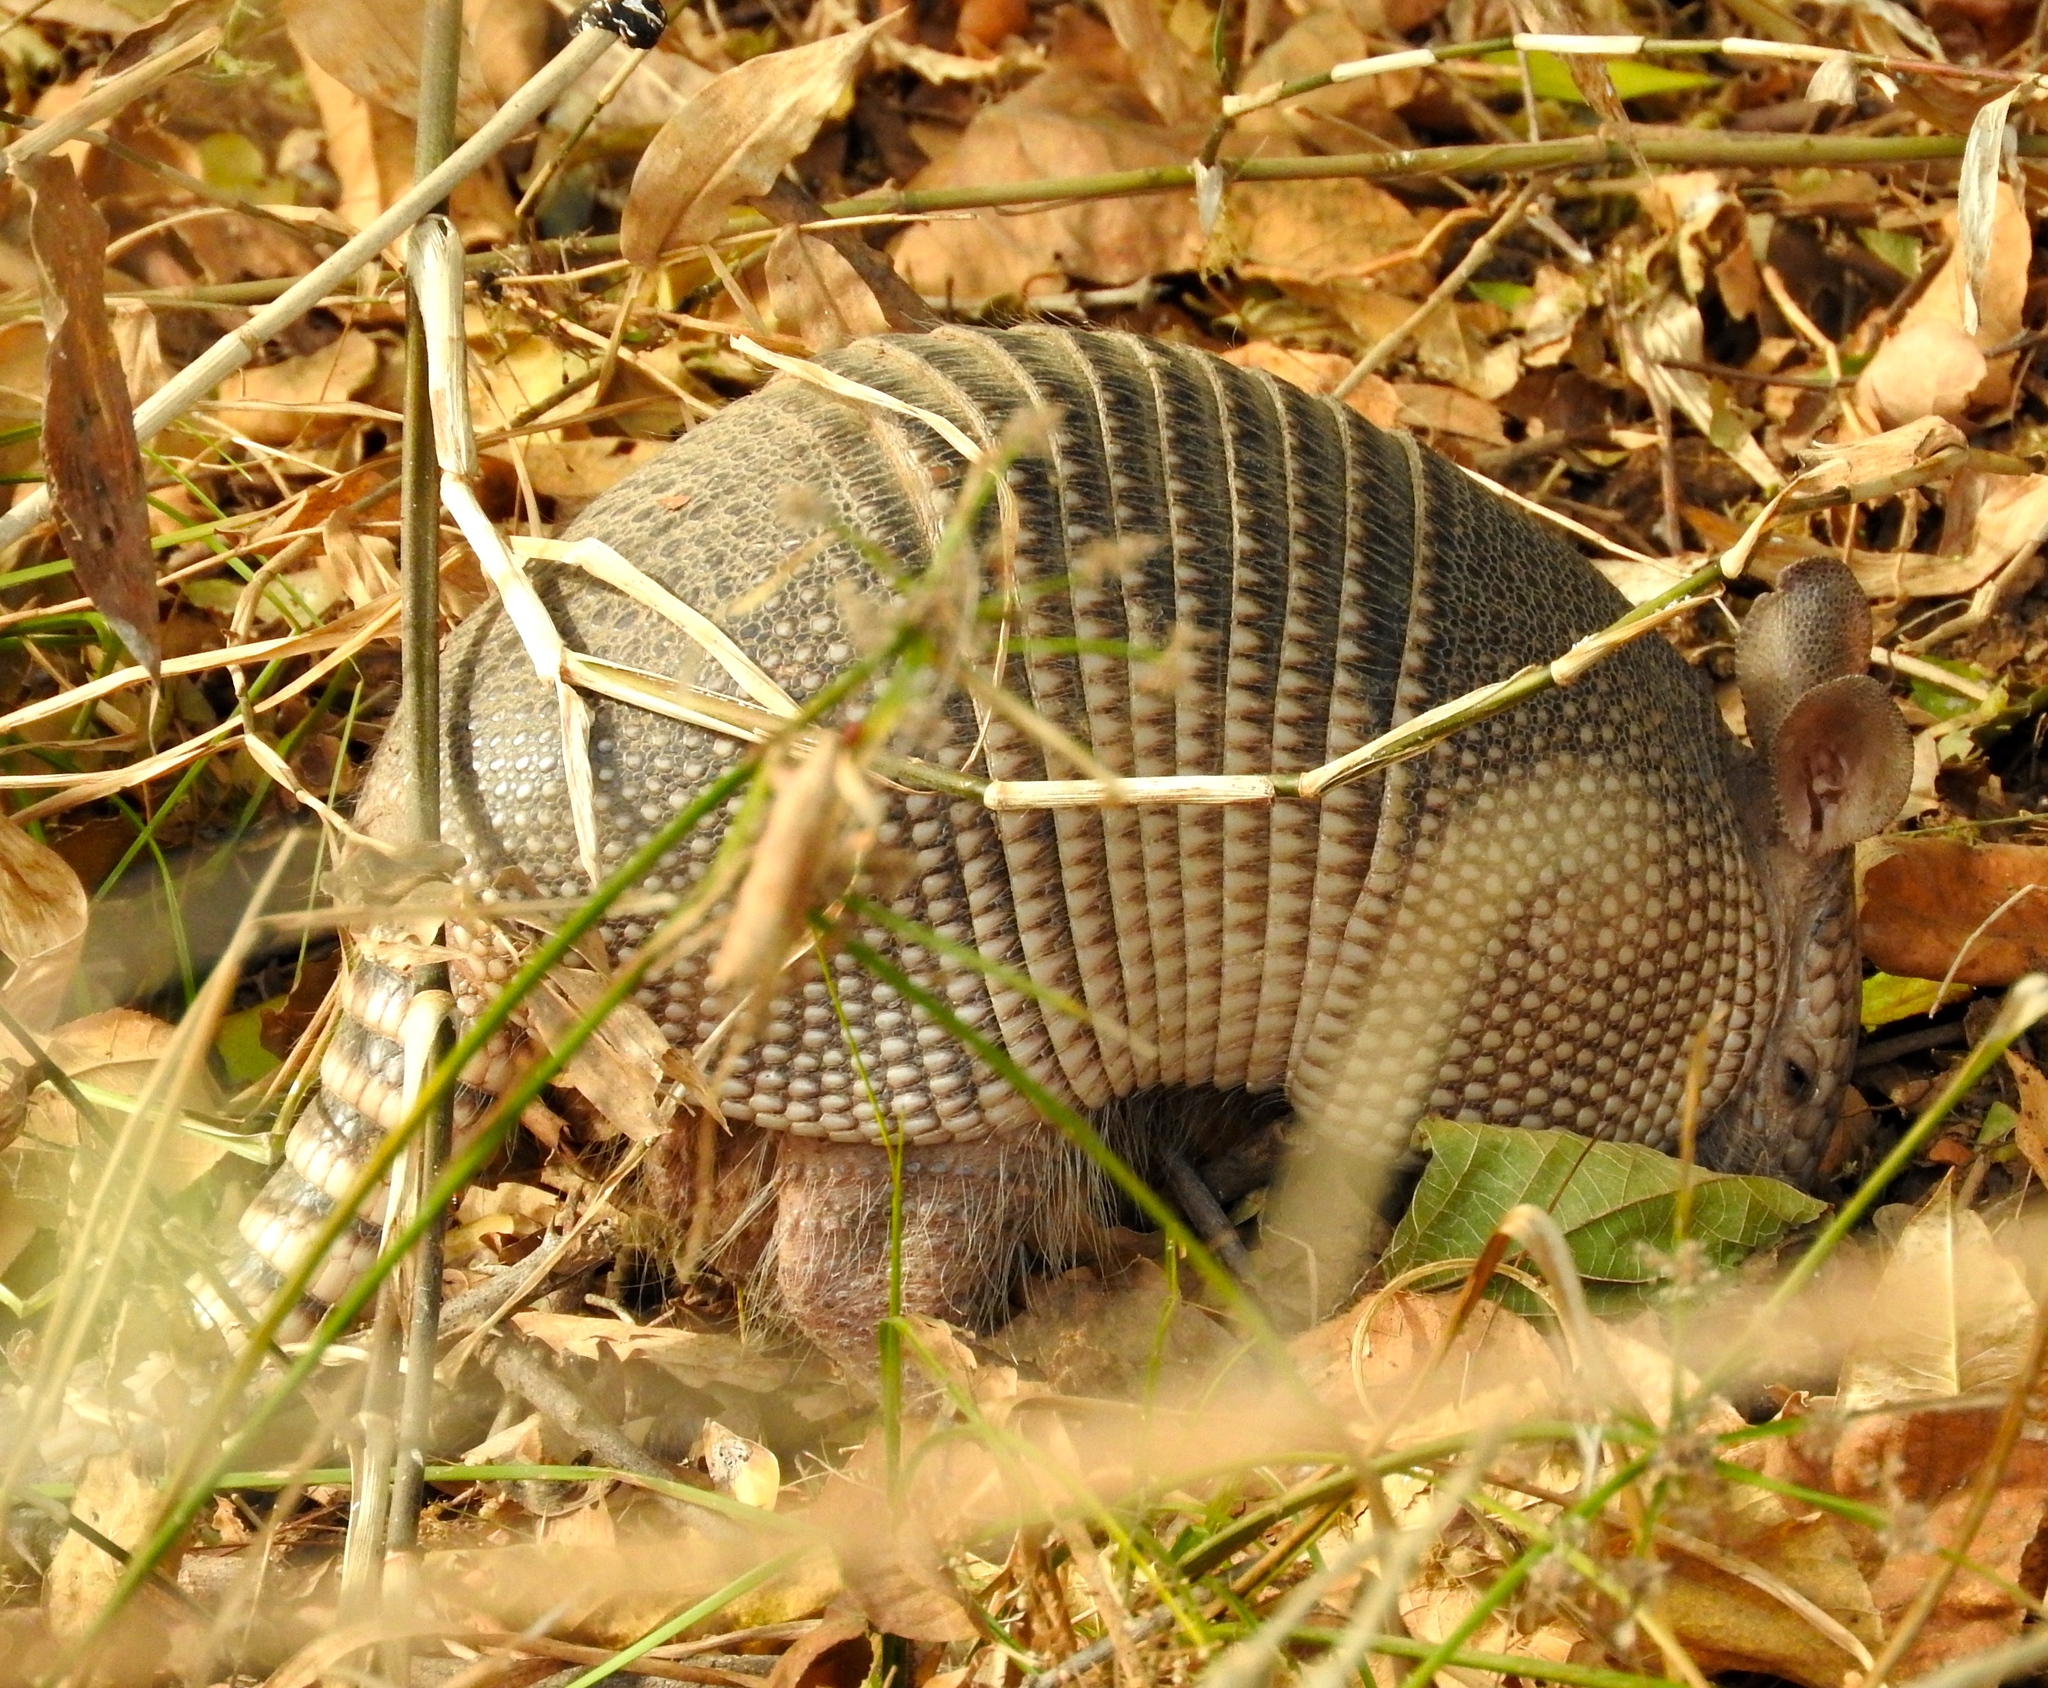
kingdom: Animalia
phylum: Chordata
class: Mammalia
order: Cingulata
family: Dasypodidae
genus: Dasypus
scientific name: Dasypus novemcinctus
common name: Nine-banded armadillo
